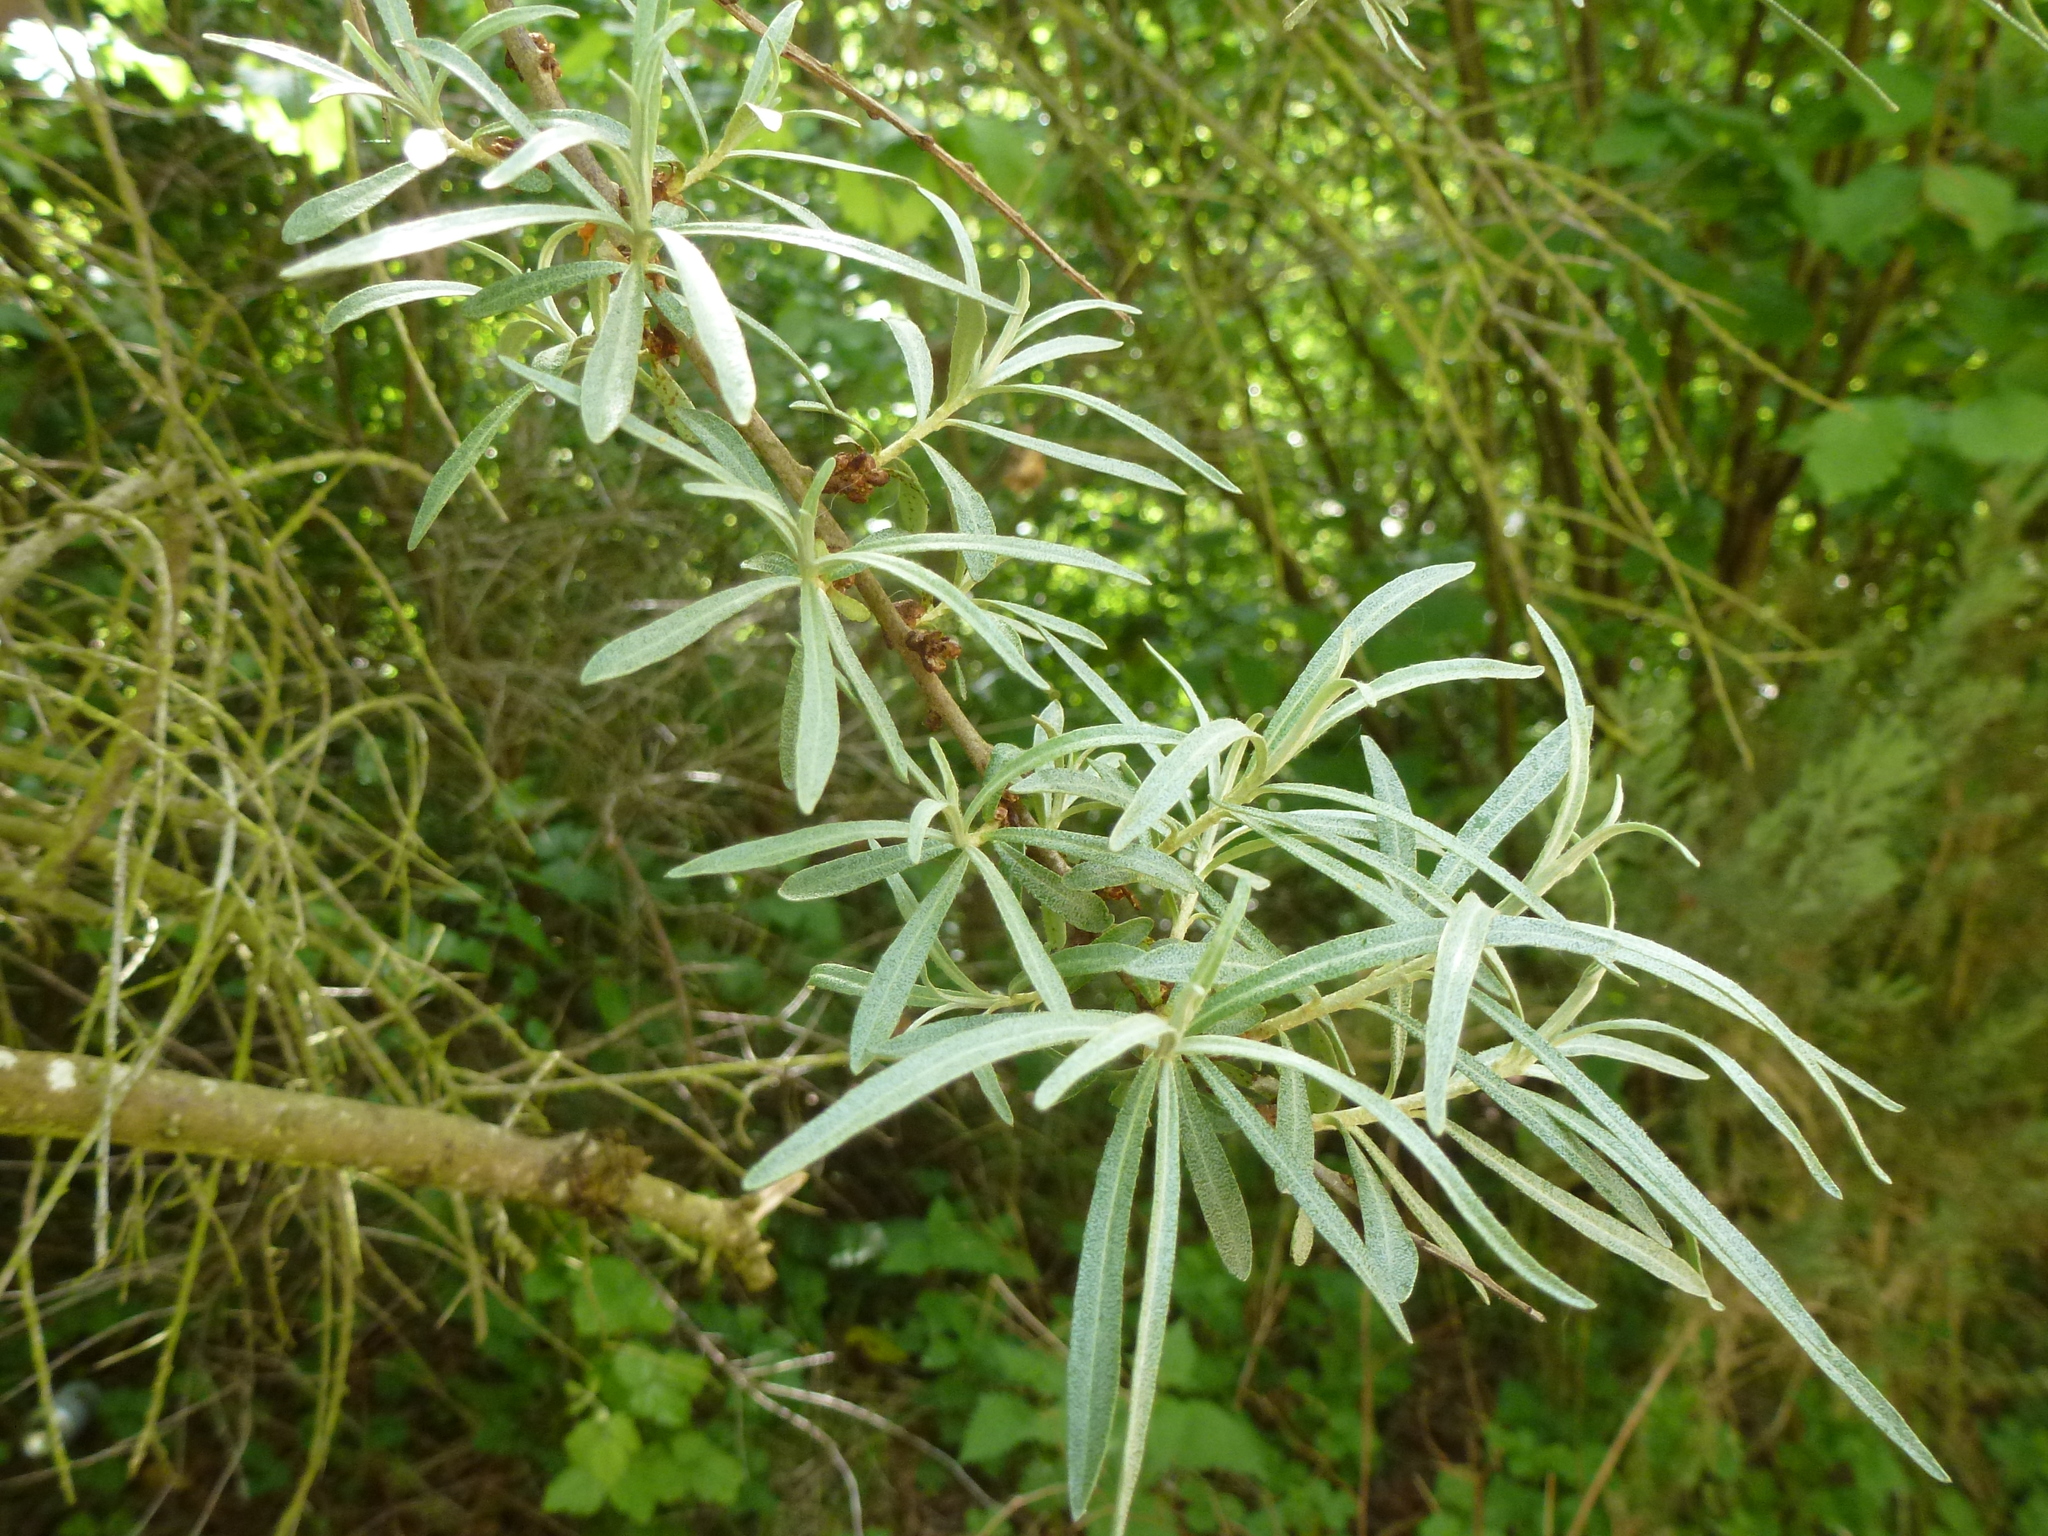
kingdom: Plantae
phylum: Tracheophyta
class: Magnoliopsida
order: Rosales
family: Elaeagnaceae
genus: Hippophae
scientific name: Hippophae rhamnoides
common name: Sea-buckthorn
